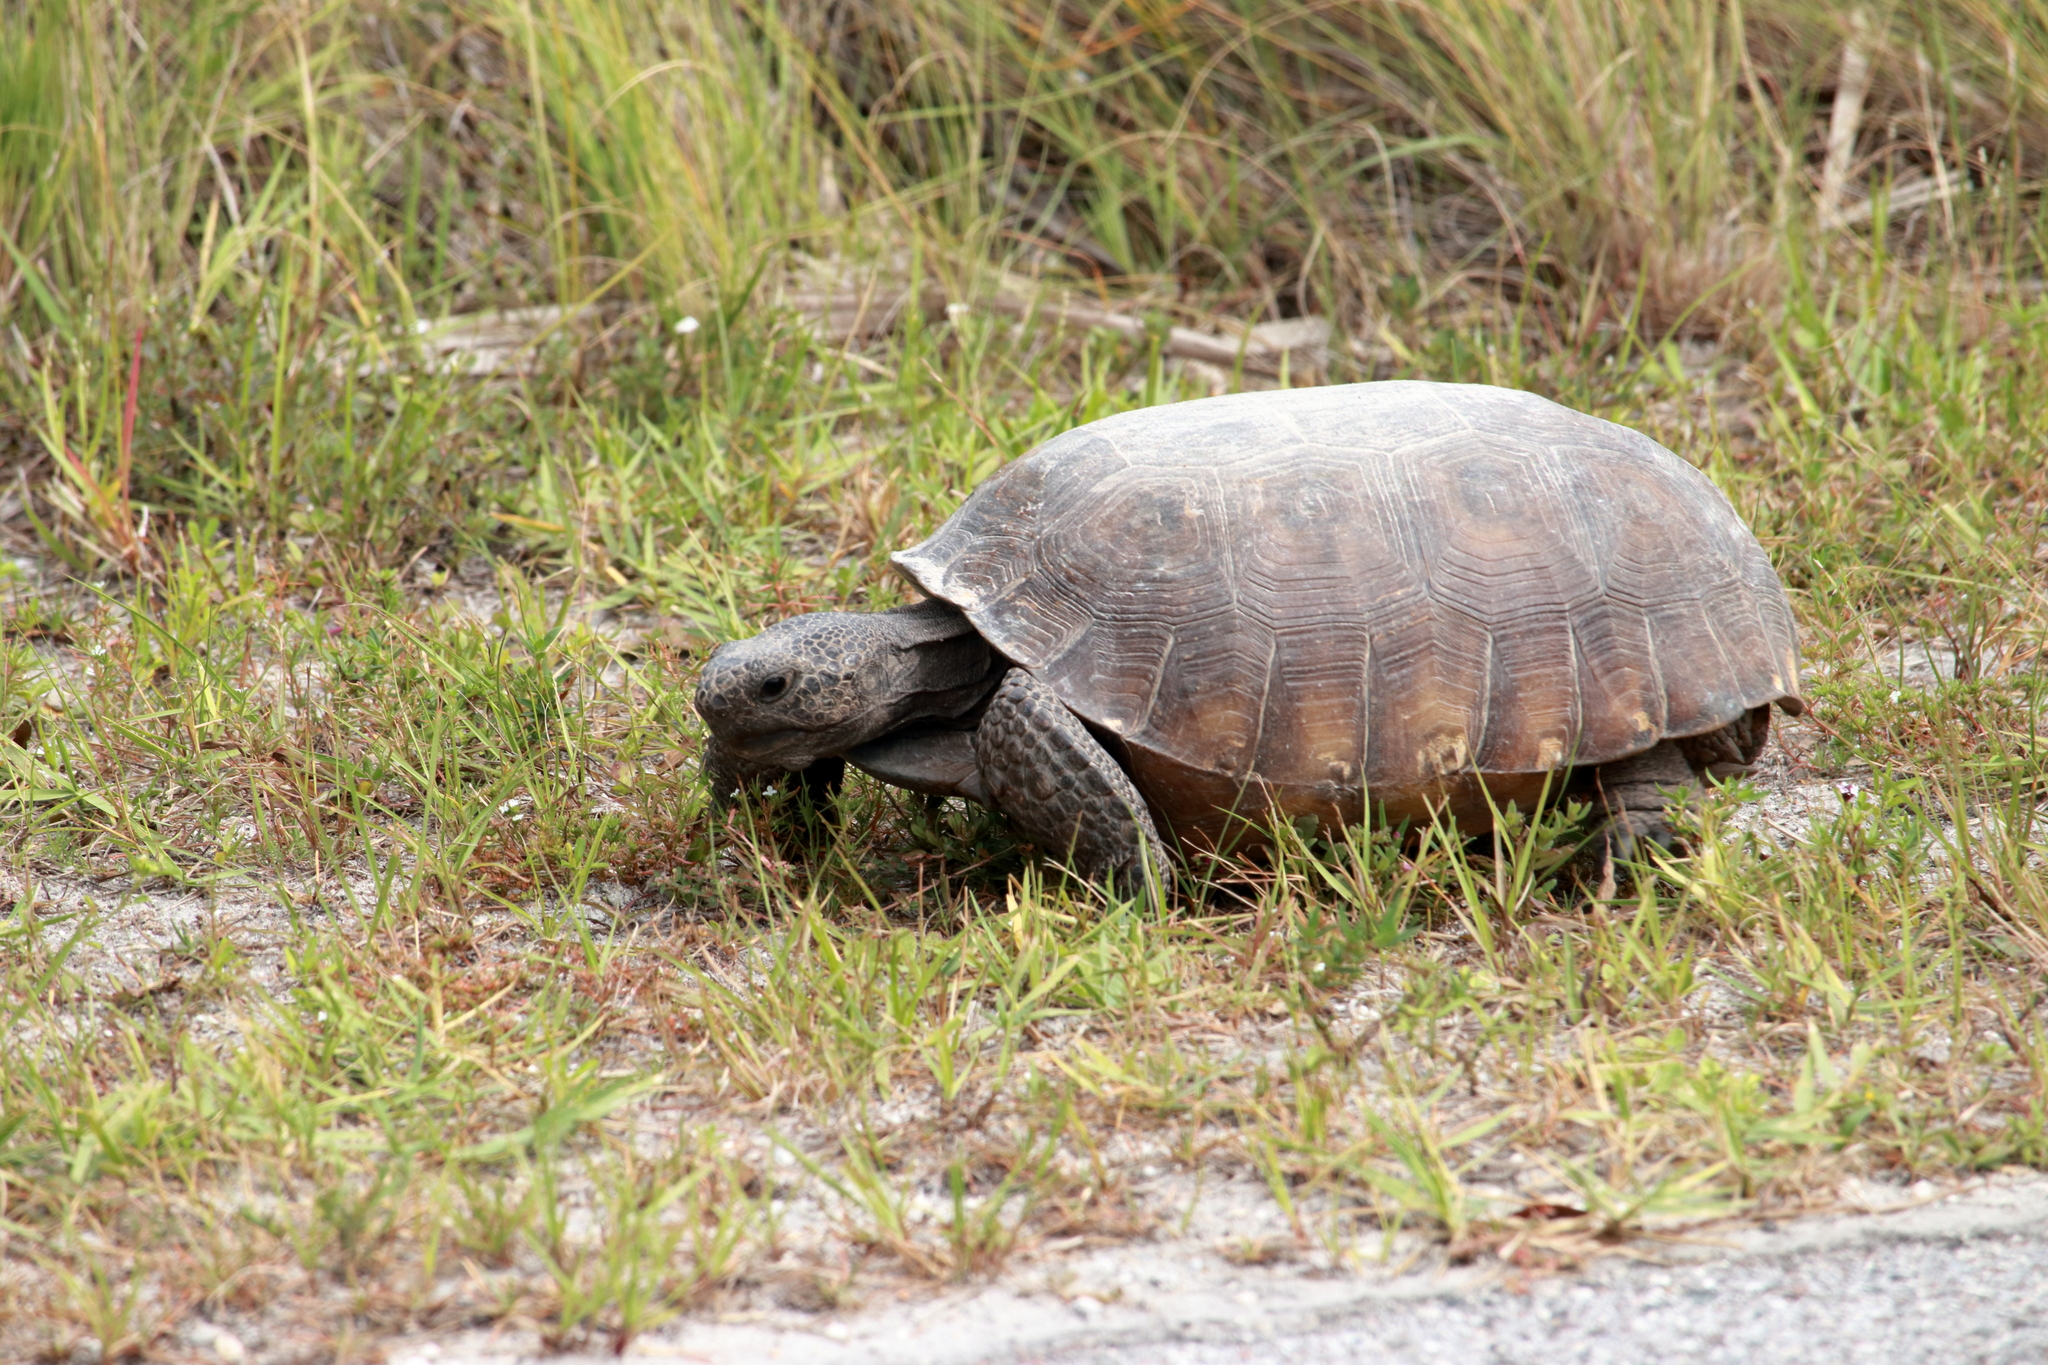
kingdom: Animalia
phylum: Chordata
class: Testudines
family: Testudinidae
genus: Gopherus
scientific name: Gopherus polyphemus
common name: Florida gopher tortoise
